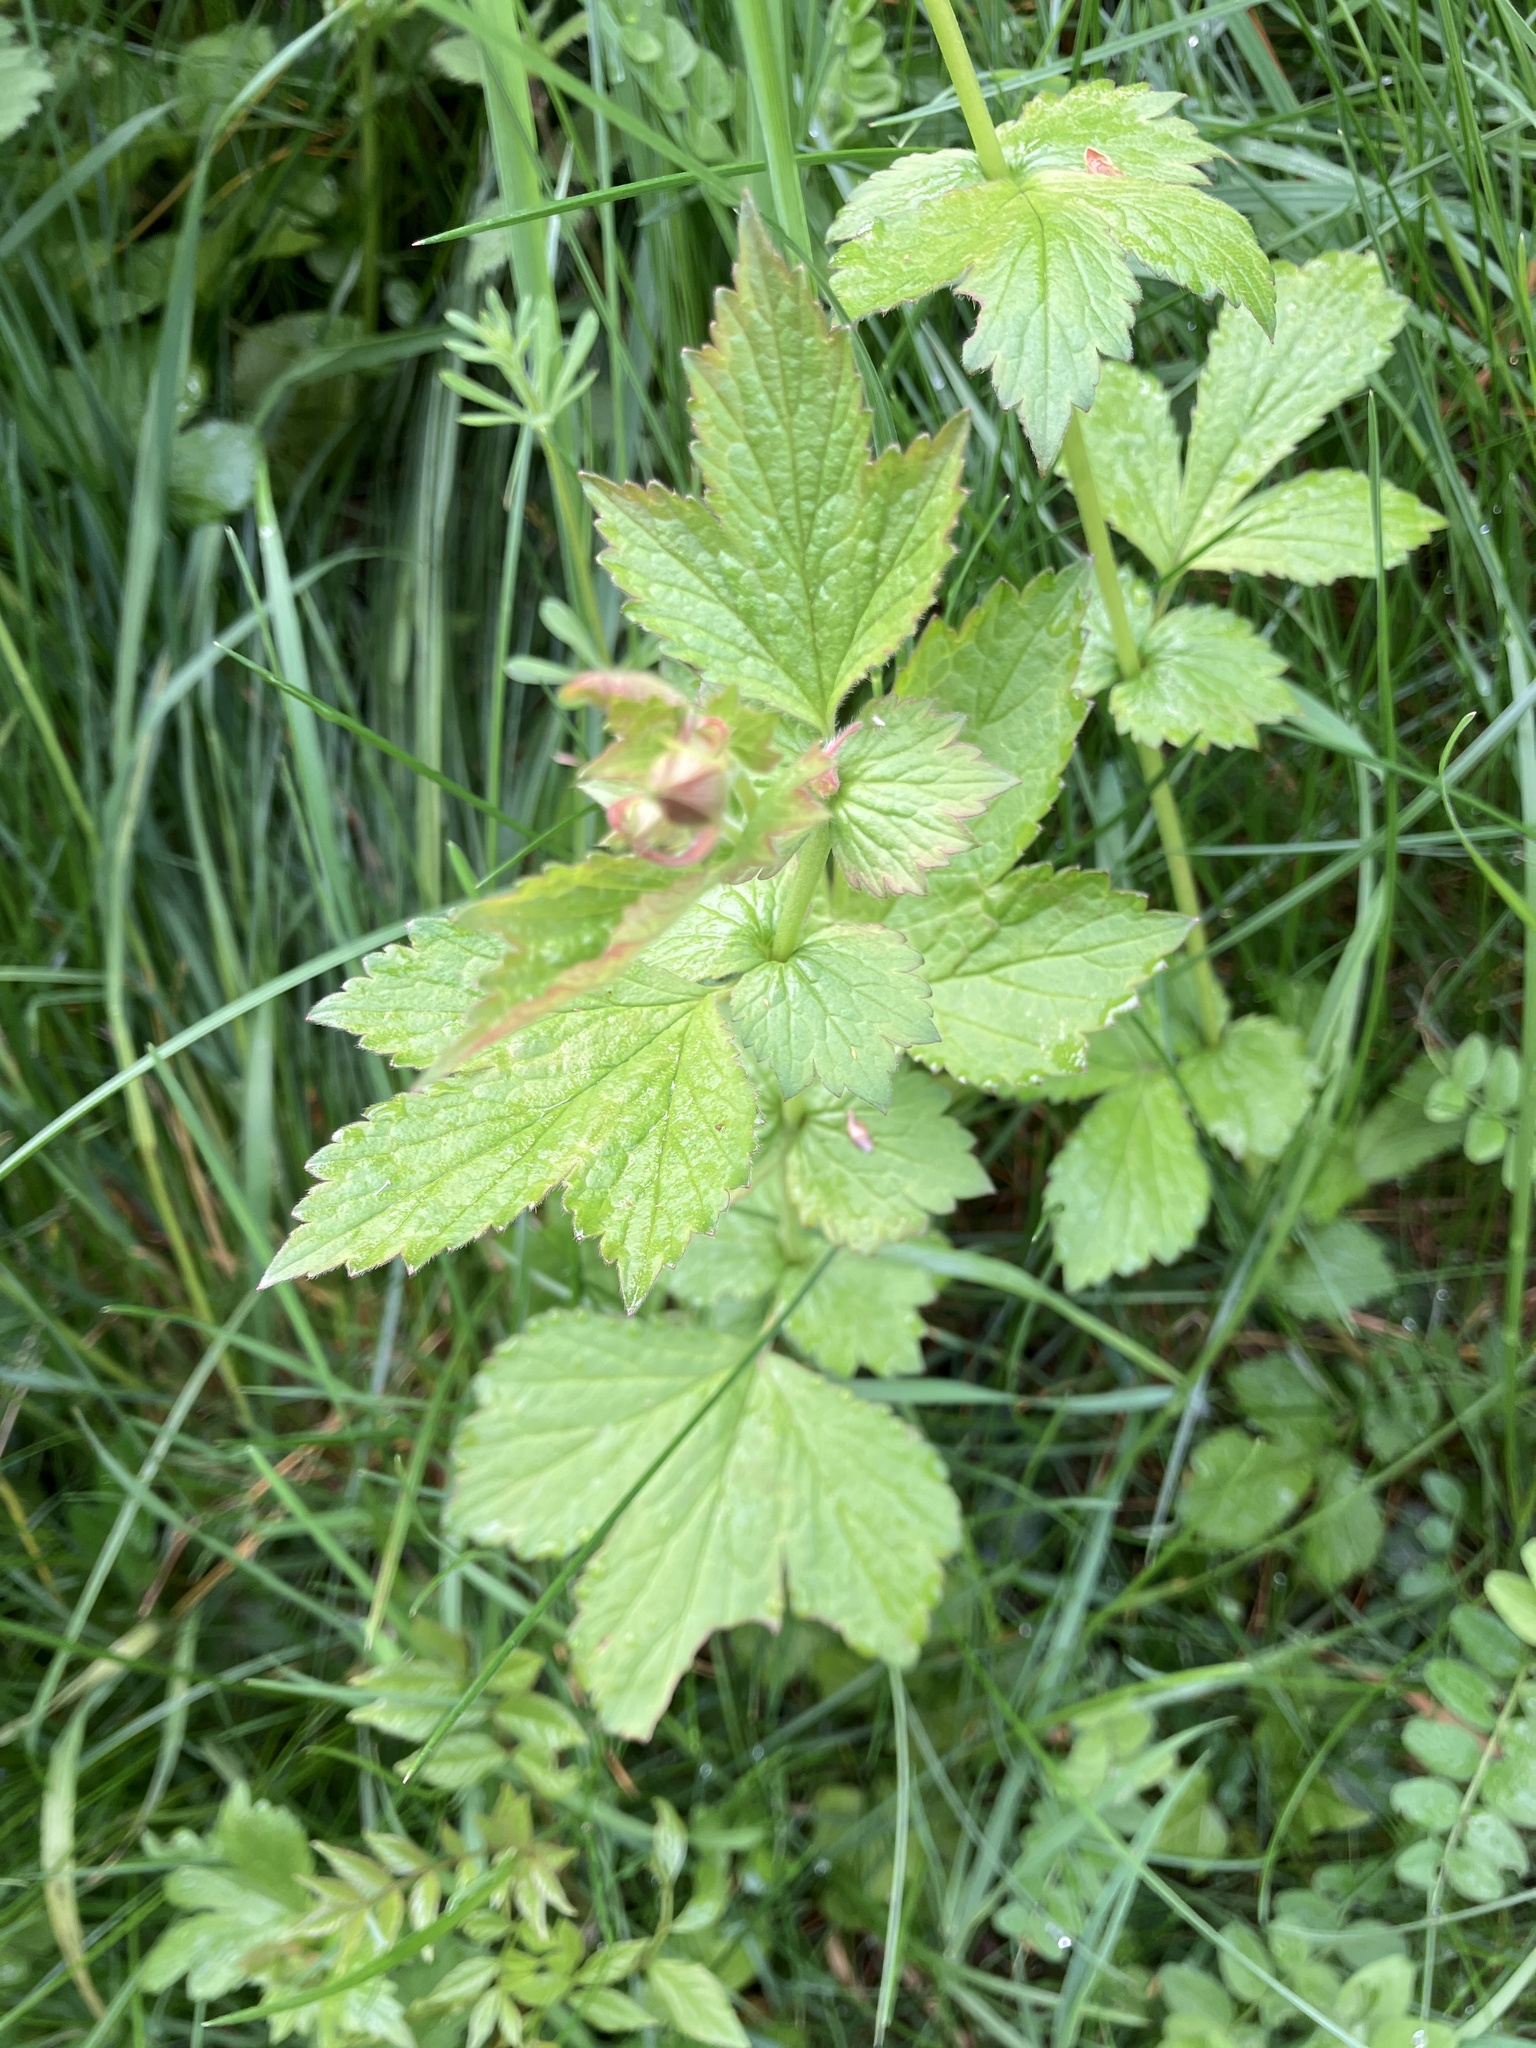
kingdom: Plantae
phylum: Tracheophyta
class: Magnoliopsida
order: Rosales
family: Rosaceae
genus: Geum
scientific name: Geum urbanum
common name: Wood avens
